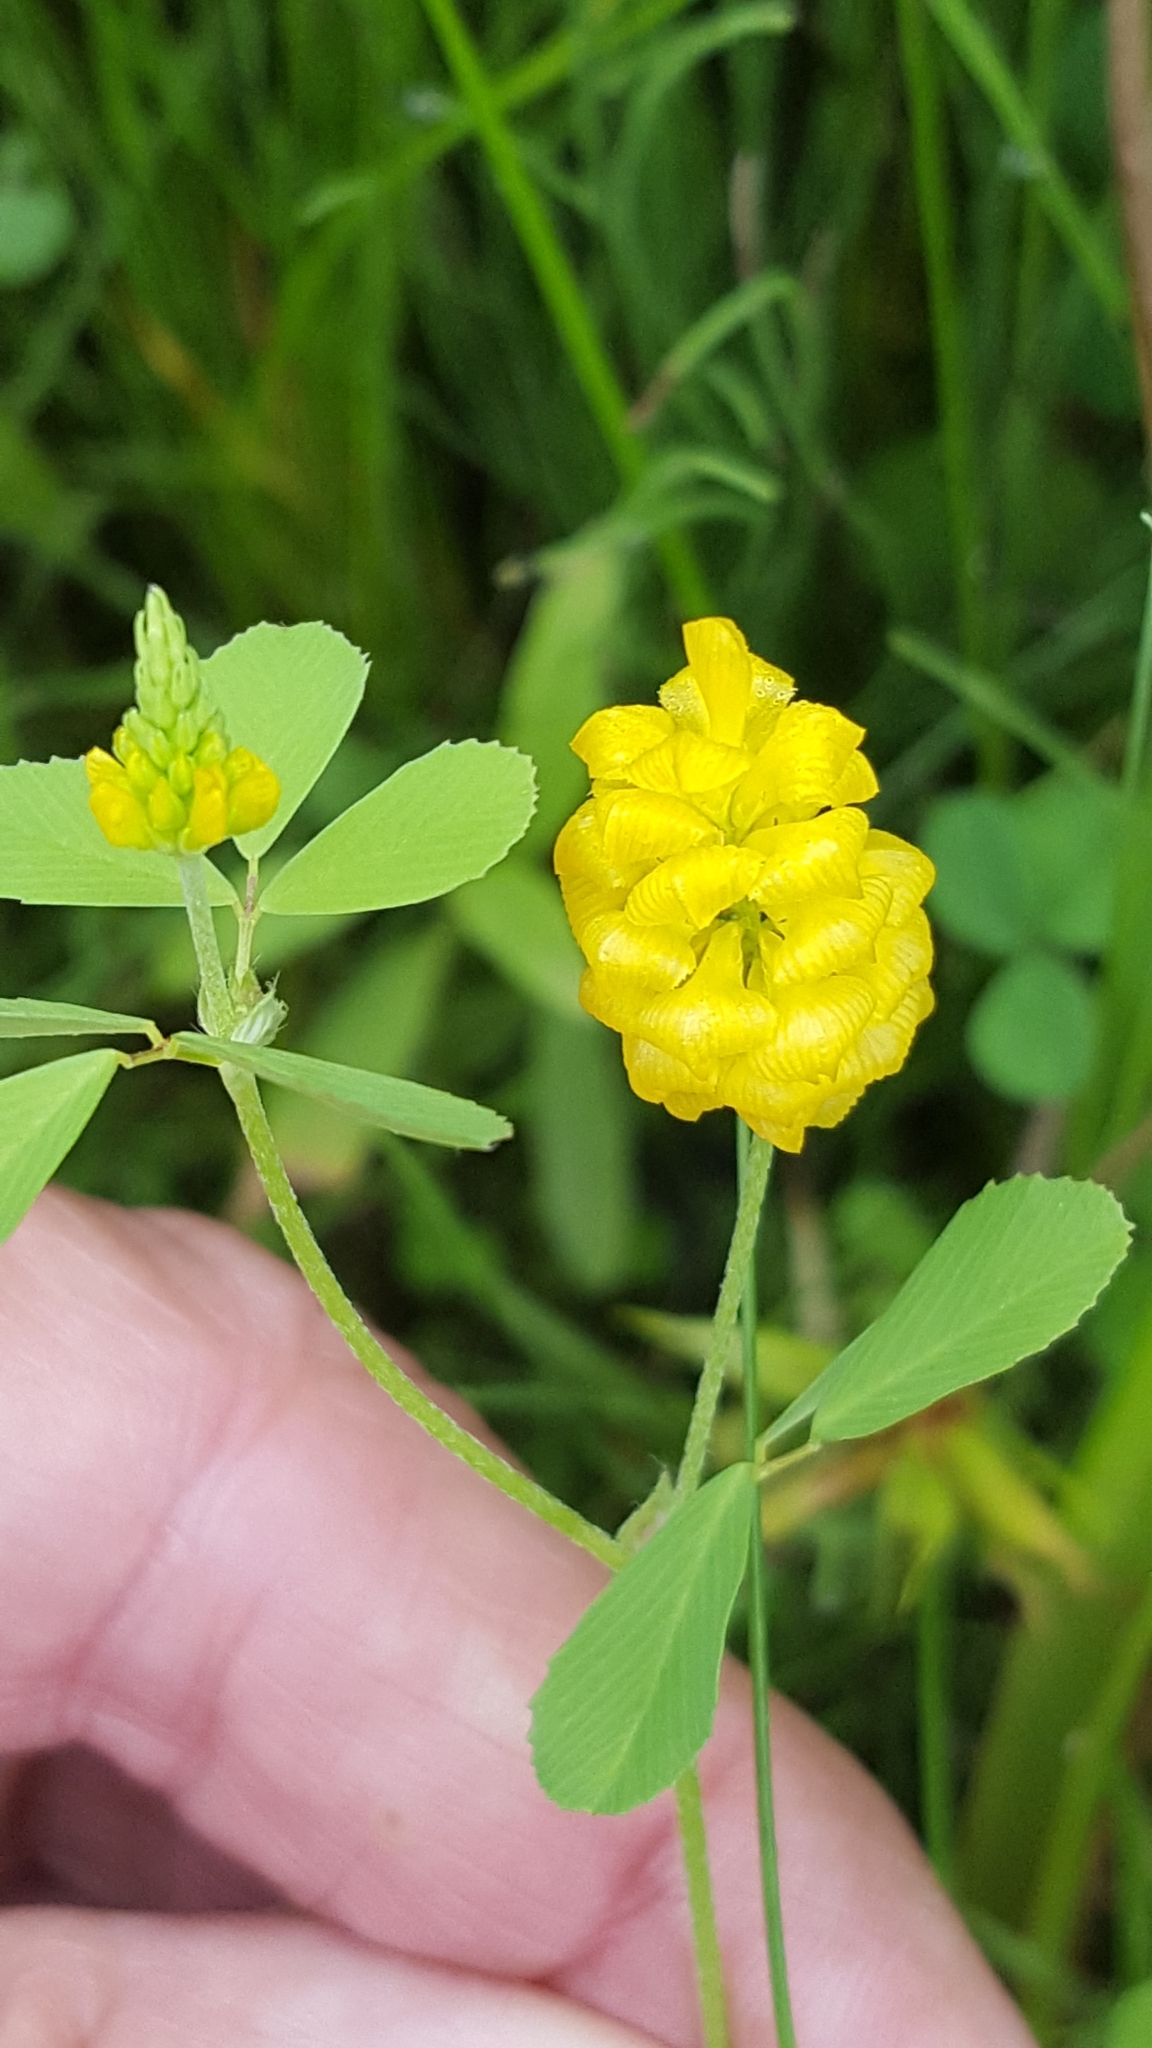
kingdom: Plantae
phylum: Tracheophyta
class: Magnoliopsida
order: Fabales
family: Fabaceae
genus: Trifolium
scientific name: Trifolium campestre
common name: Field clover
